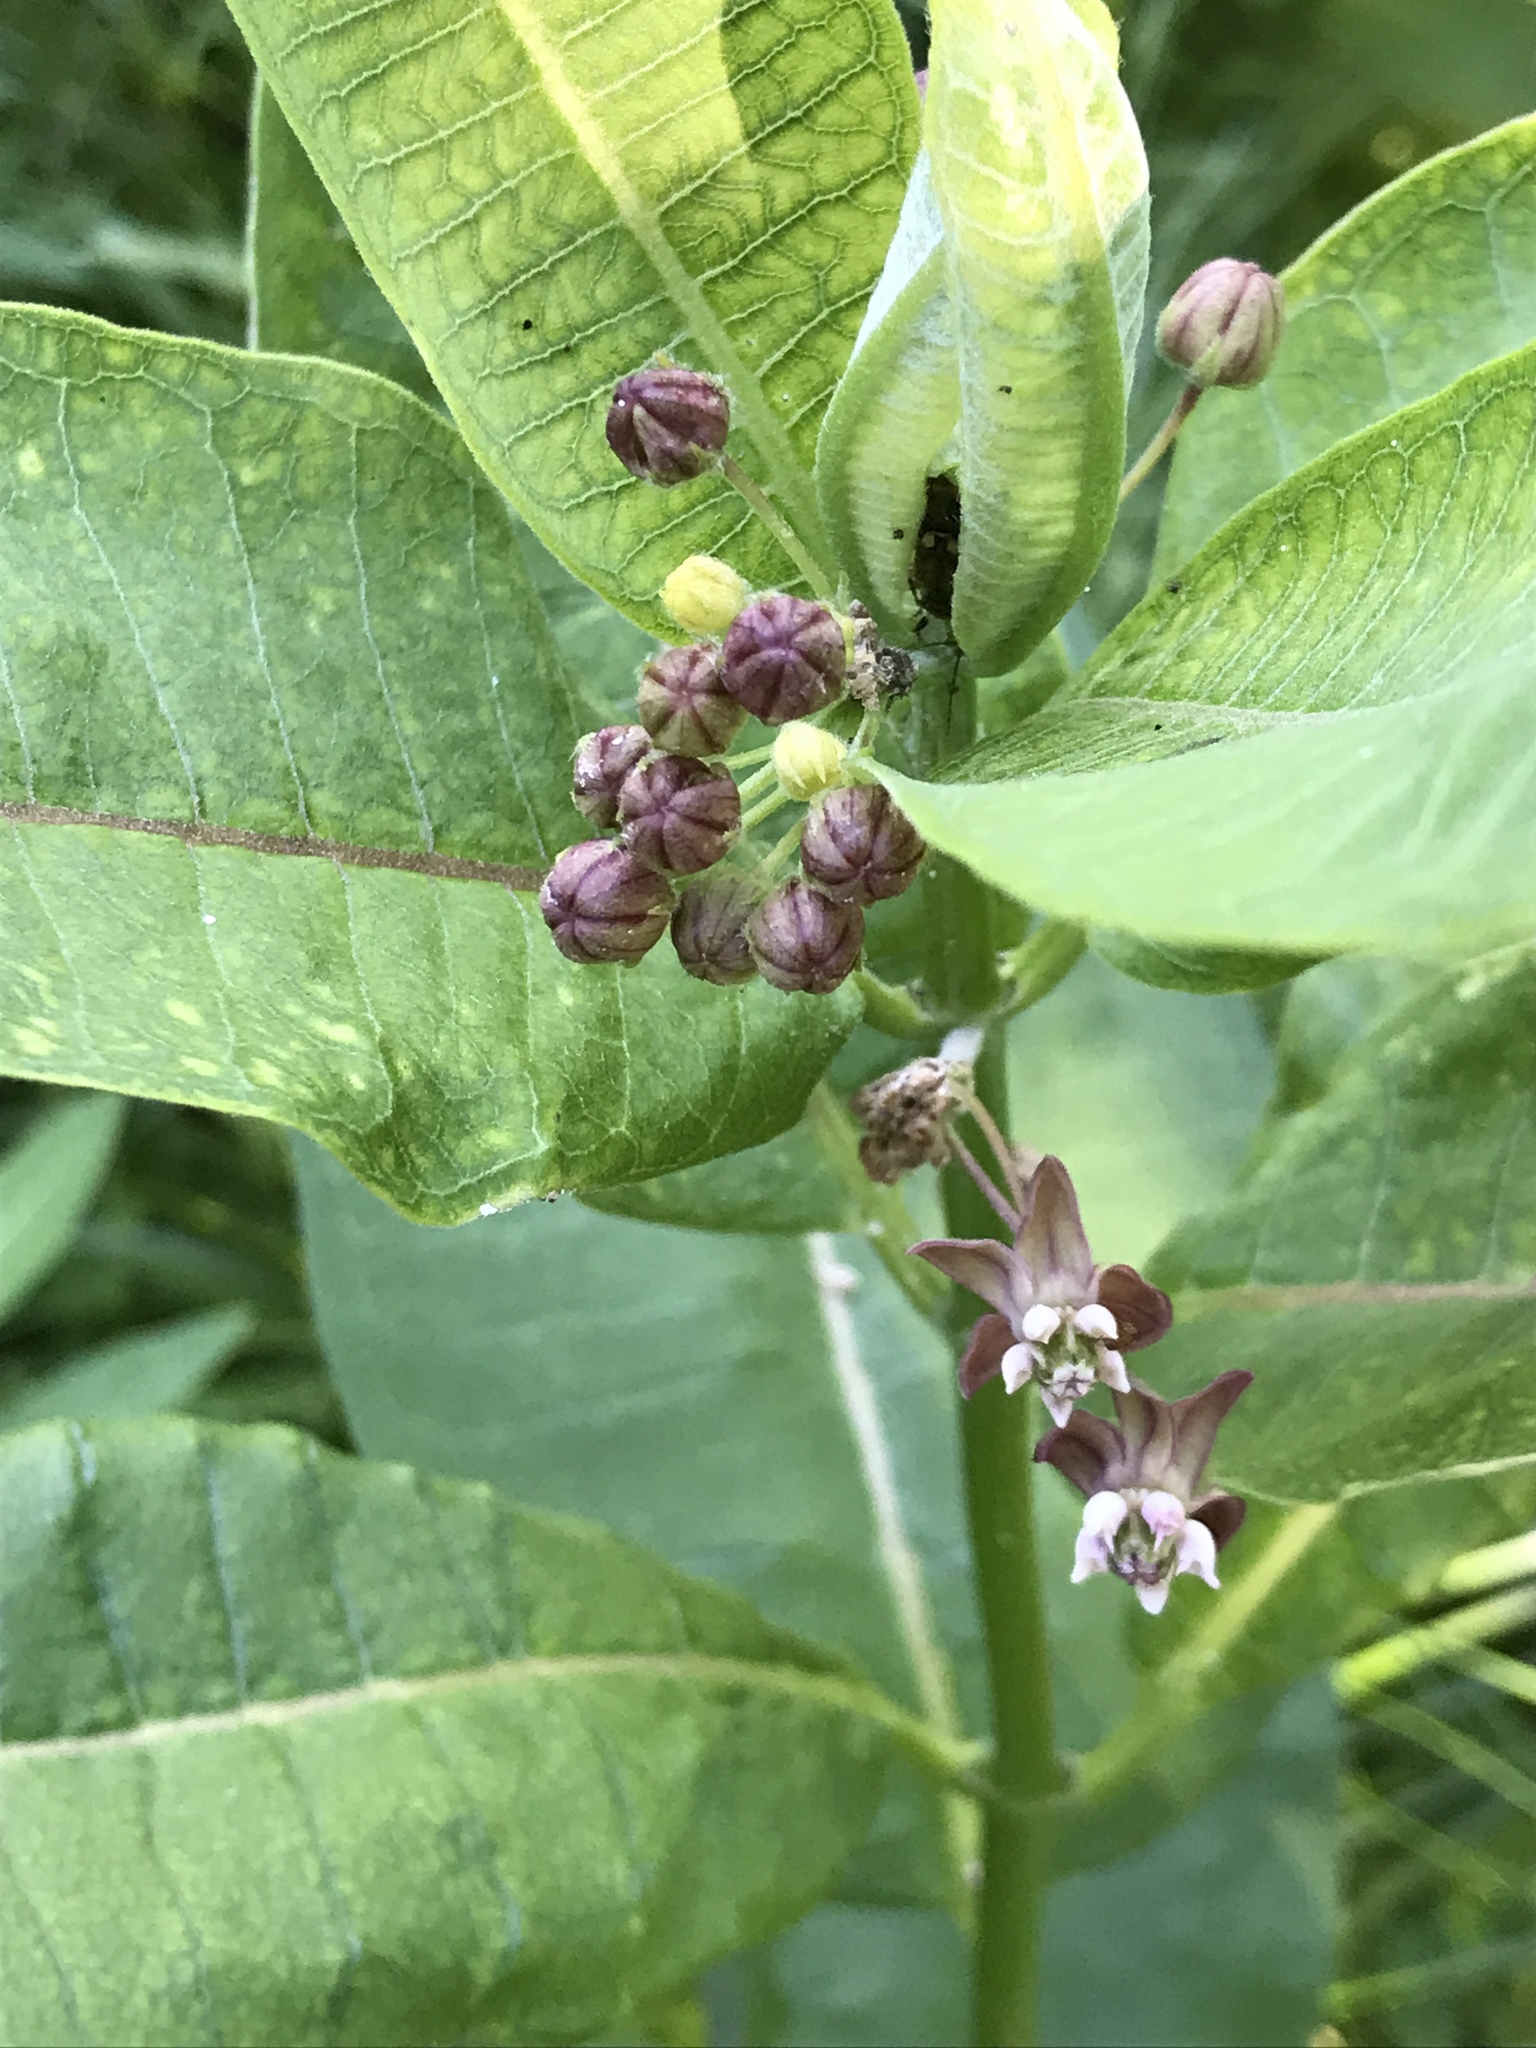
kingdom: Plantae
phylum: Tracheophyta
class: Magnoliopsida
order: Gentianales
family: Apocynaceae
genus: Asclepias
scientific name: Asclepias syriaca
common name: Common milkweed
